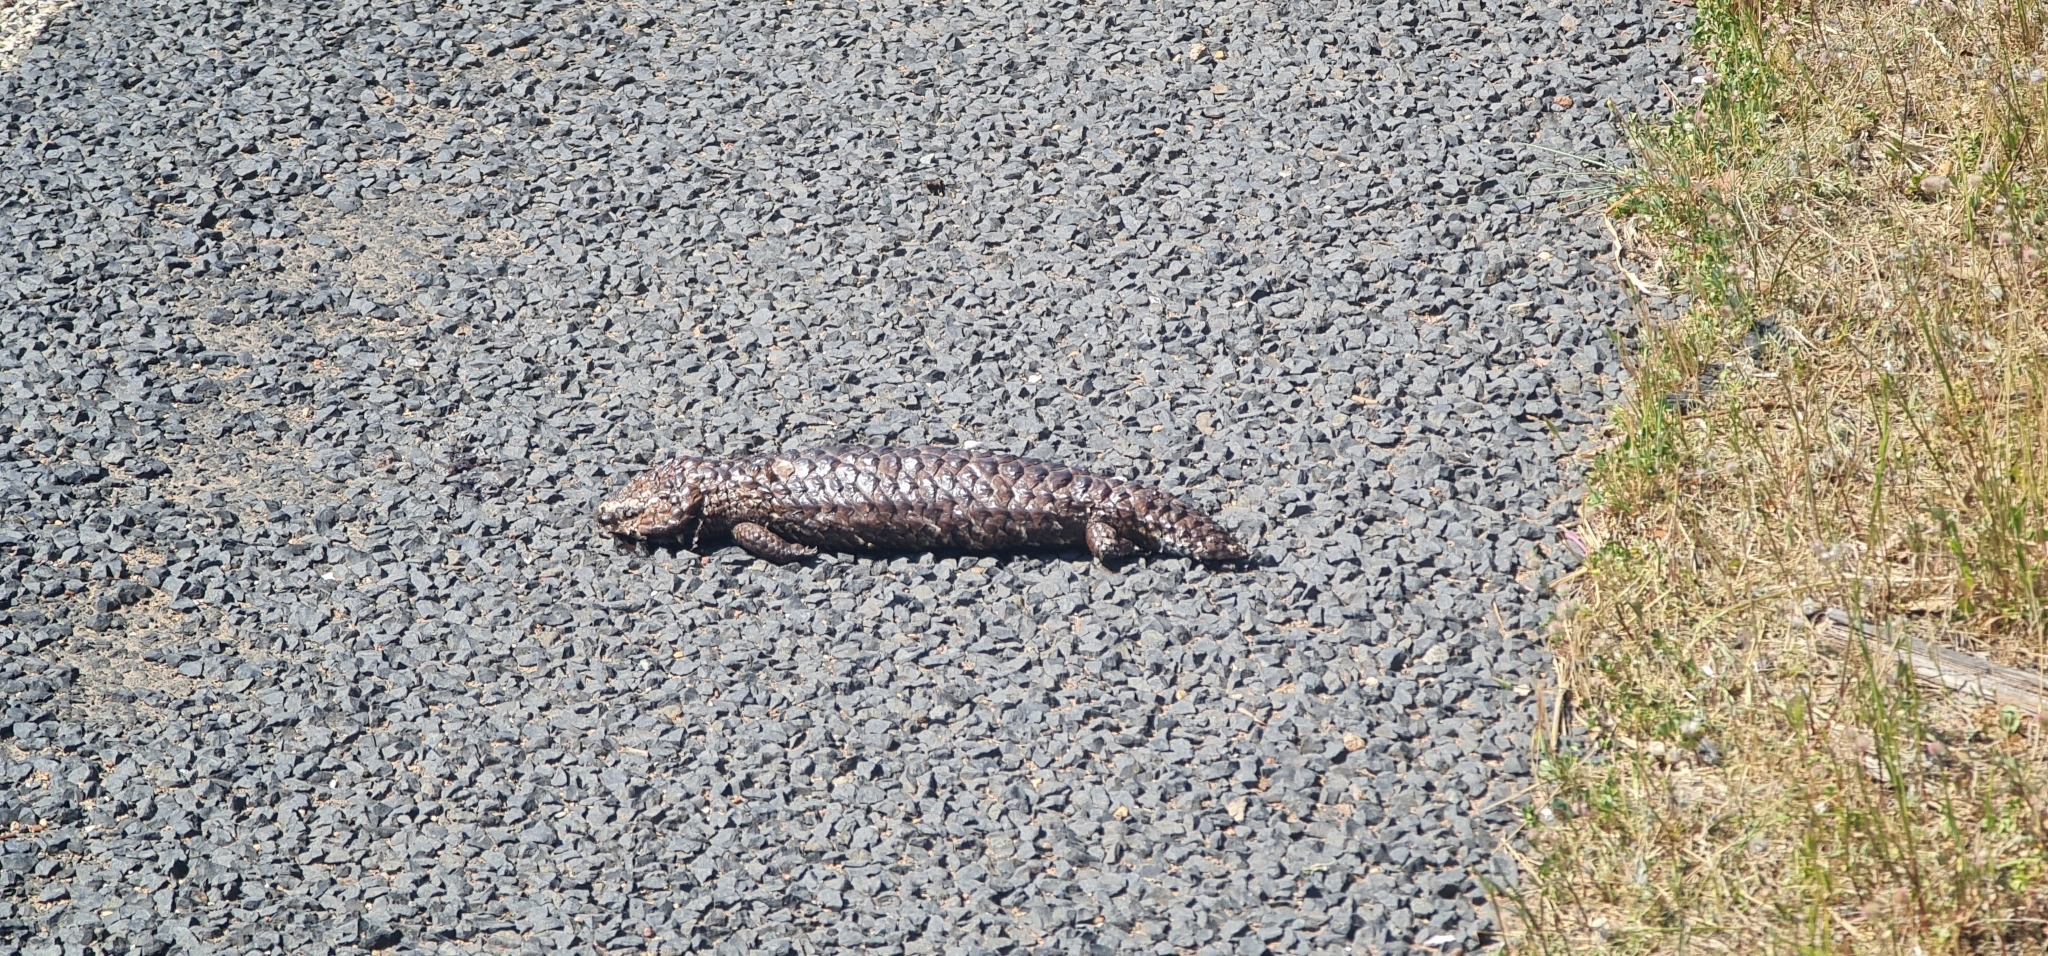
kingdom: Animalia
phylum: Chordata
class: Squamata
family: Scincidae
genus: Tiliqua
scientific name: Tiliqua rugosa
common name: Pinecone lizard
